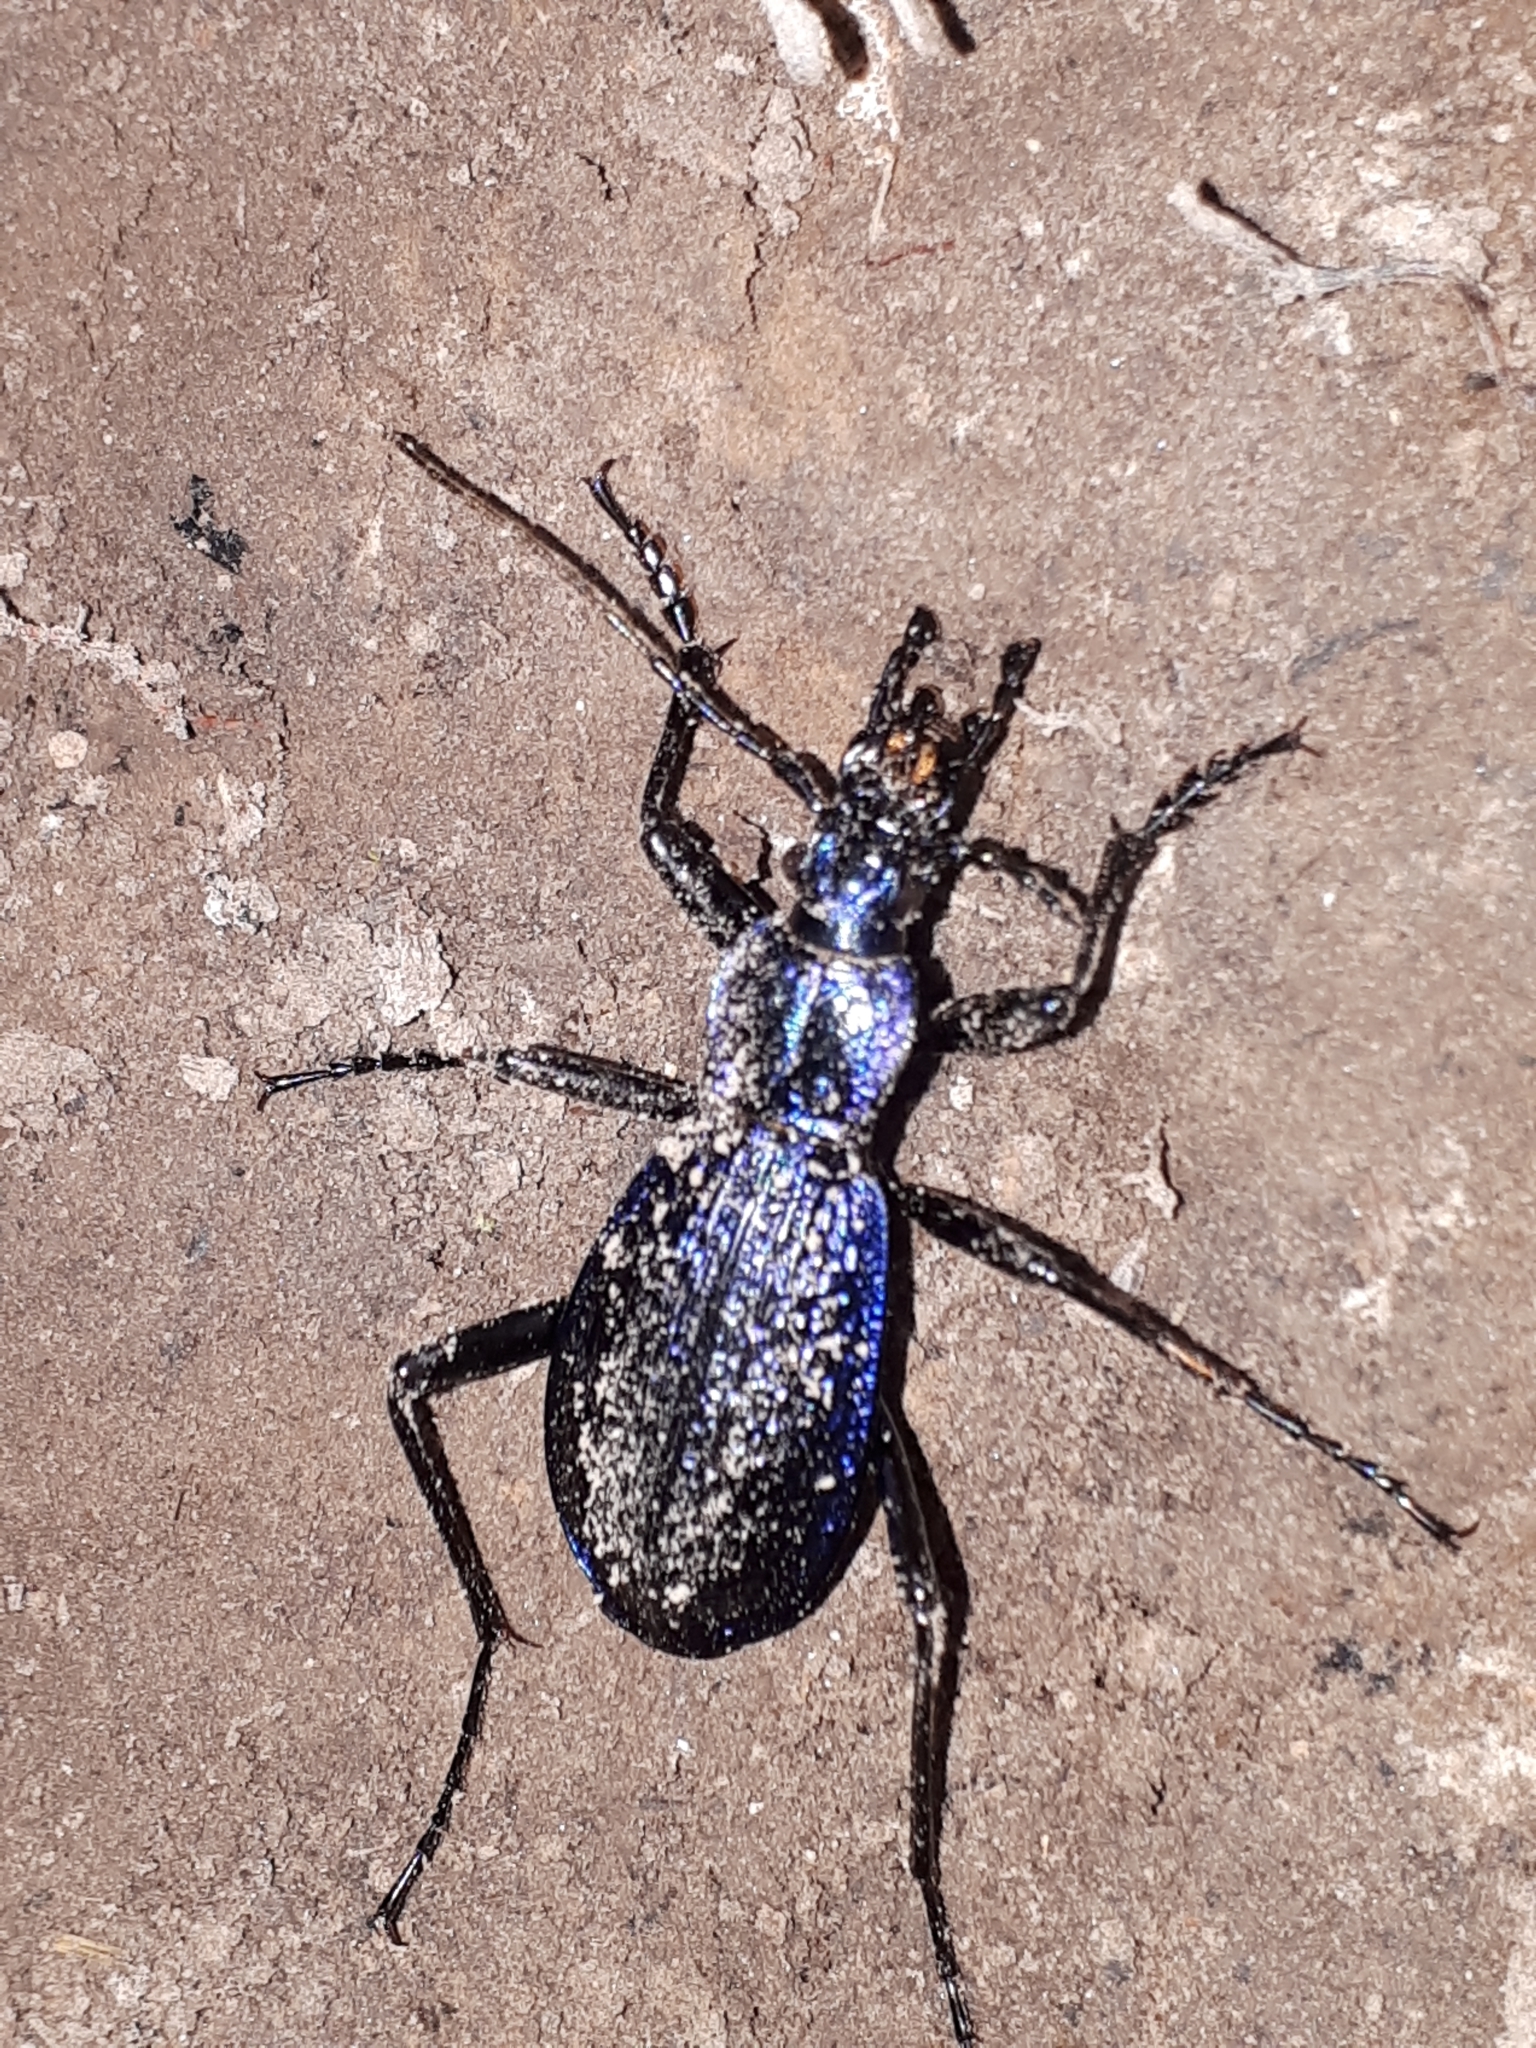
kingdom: Animalia
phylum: Arthropoda
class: Insecta
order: Coleoptera
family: Carabidae
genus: Carabus
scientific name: Carabus intricatus
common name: Blue ground beetle
